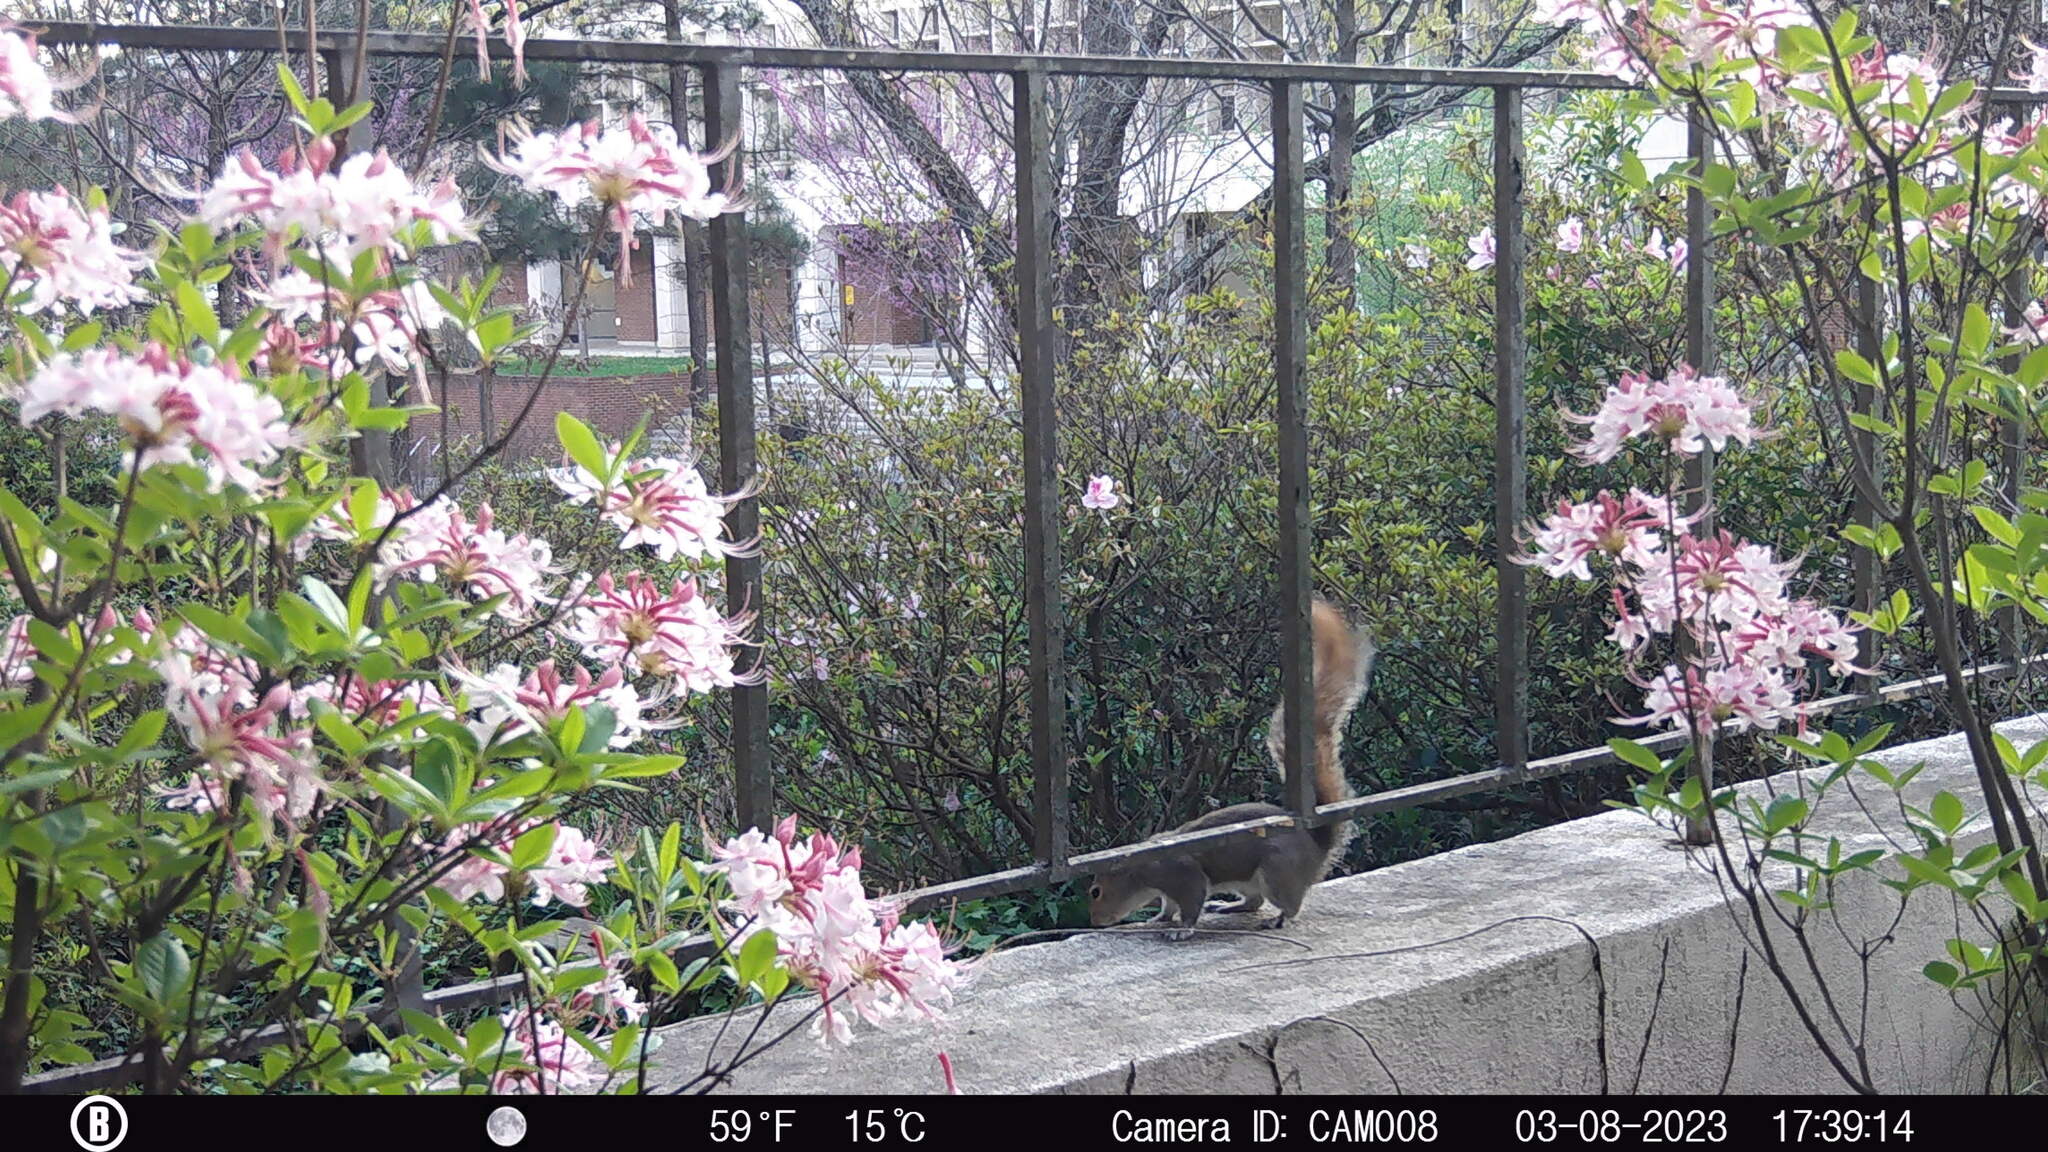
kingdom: Animalia
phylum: Chordata
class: Mammalia
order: Rodentia
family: Sciuridae
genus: Sciurus
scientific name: Sciurus carolinensis
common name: Eastern gray squirrel
